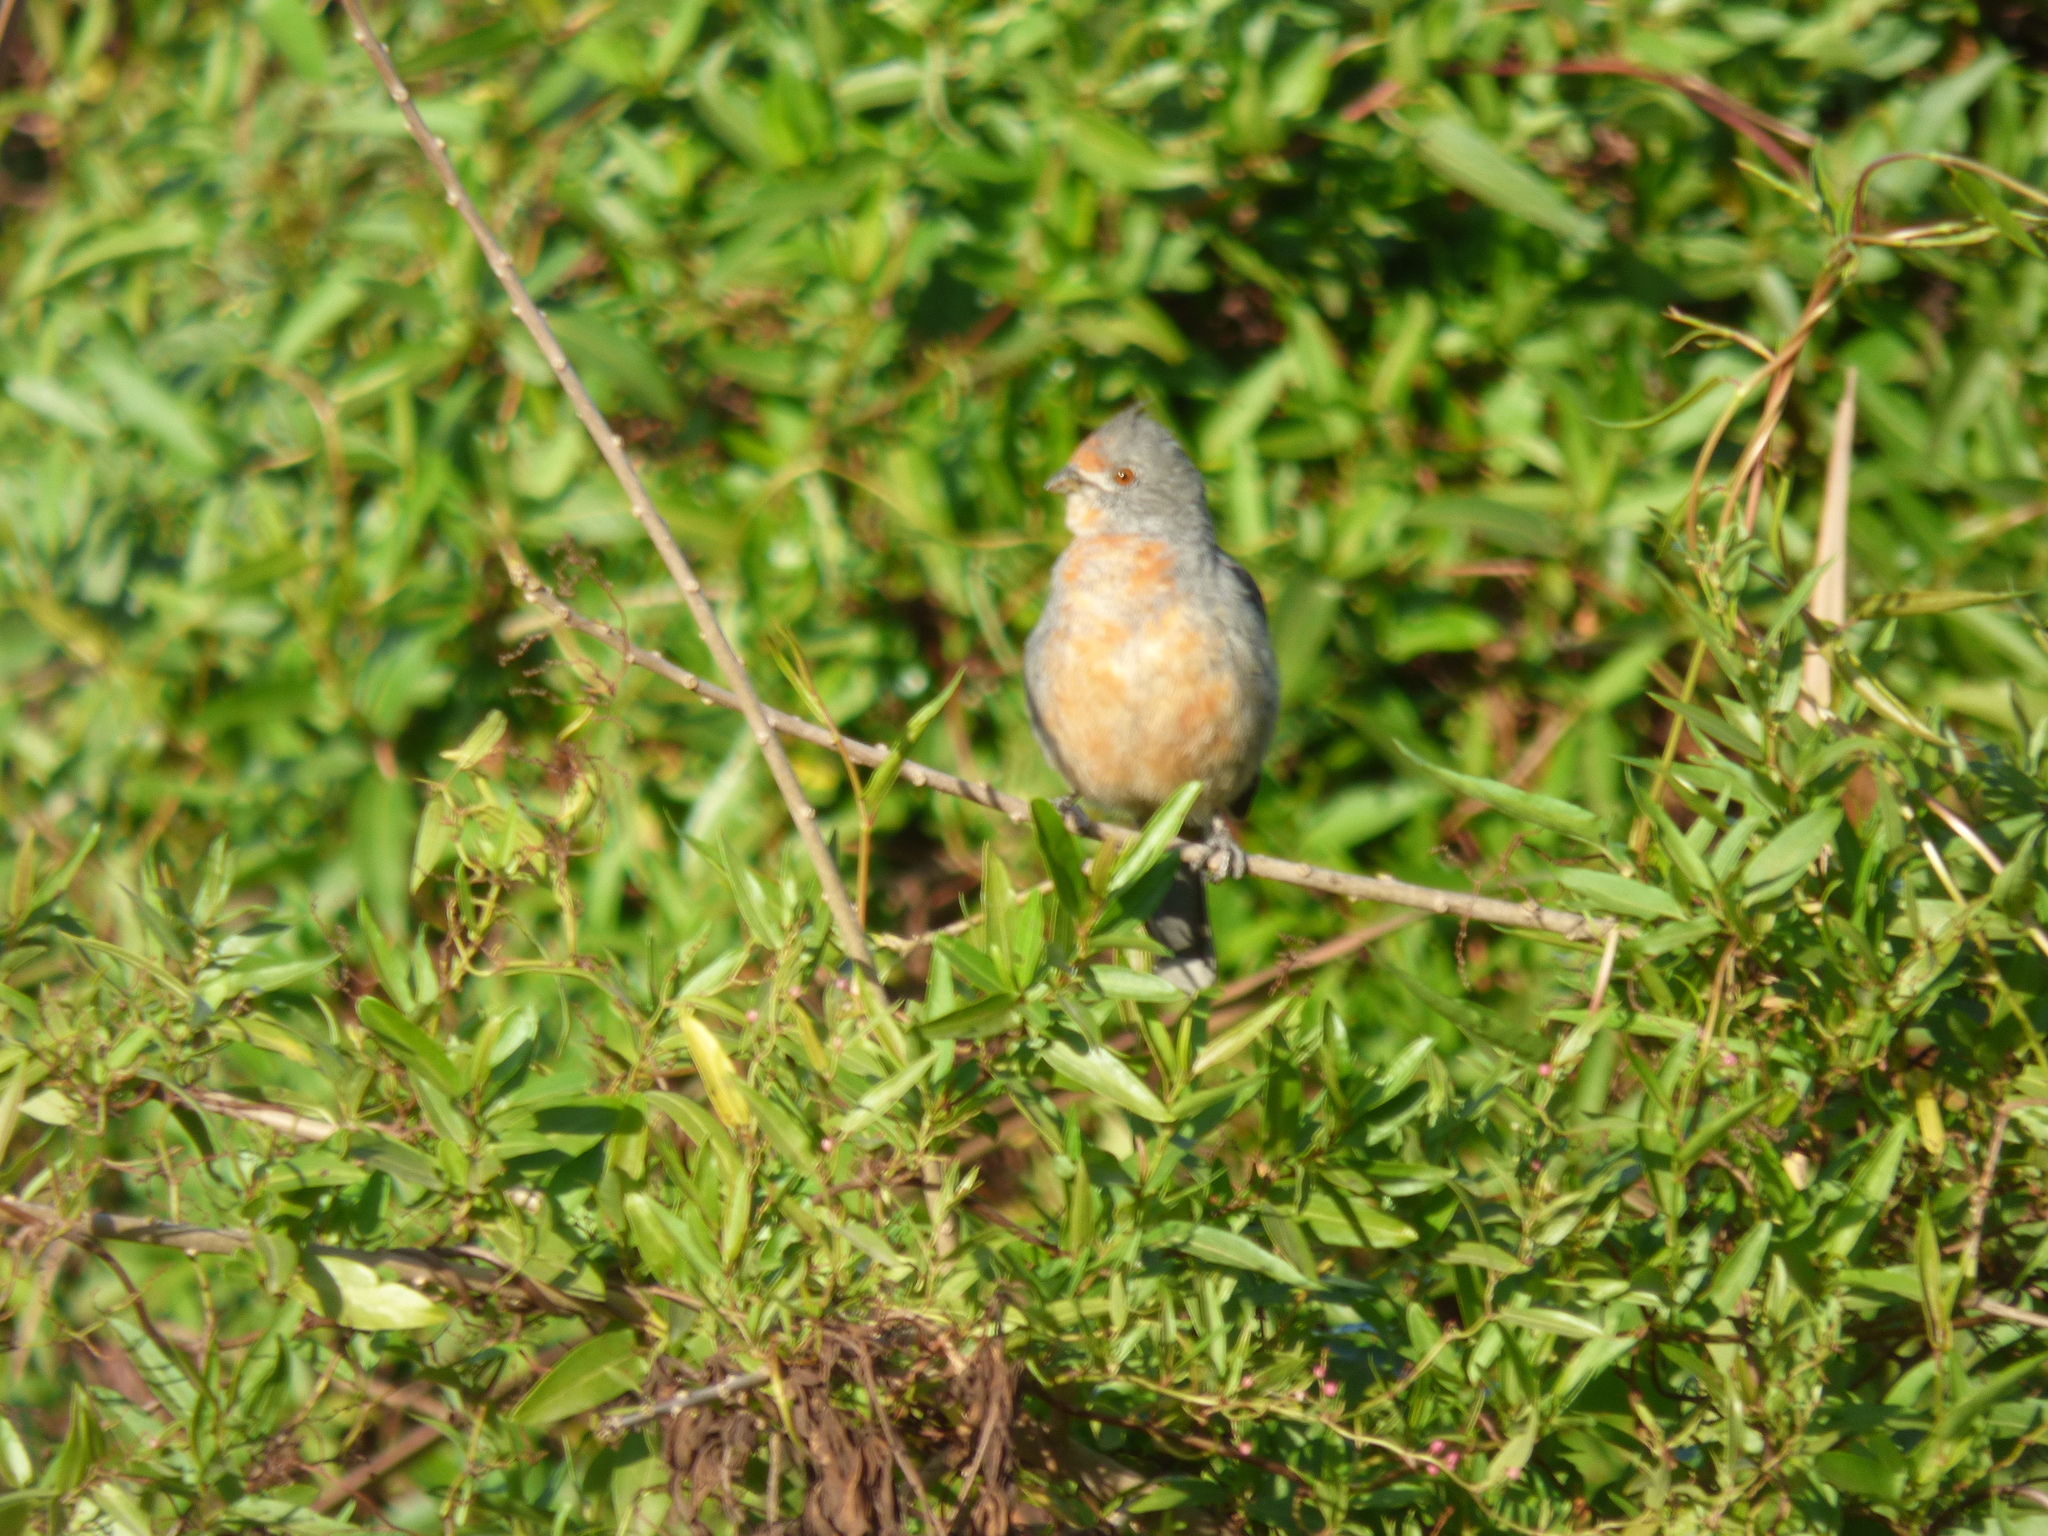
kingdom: Animalia
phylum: Chordata
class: Aves
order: Passeriformes
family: Cotingidae
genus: Phytotoma
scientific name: Phytotoma rutila
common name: White-tipped plantcutter
